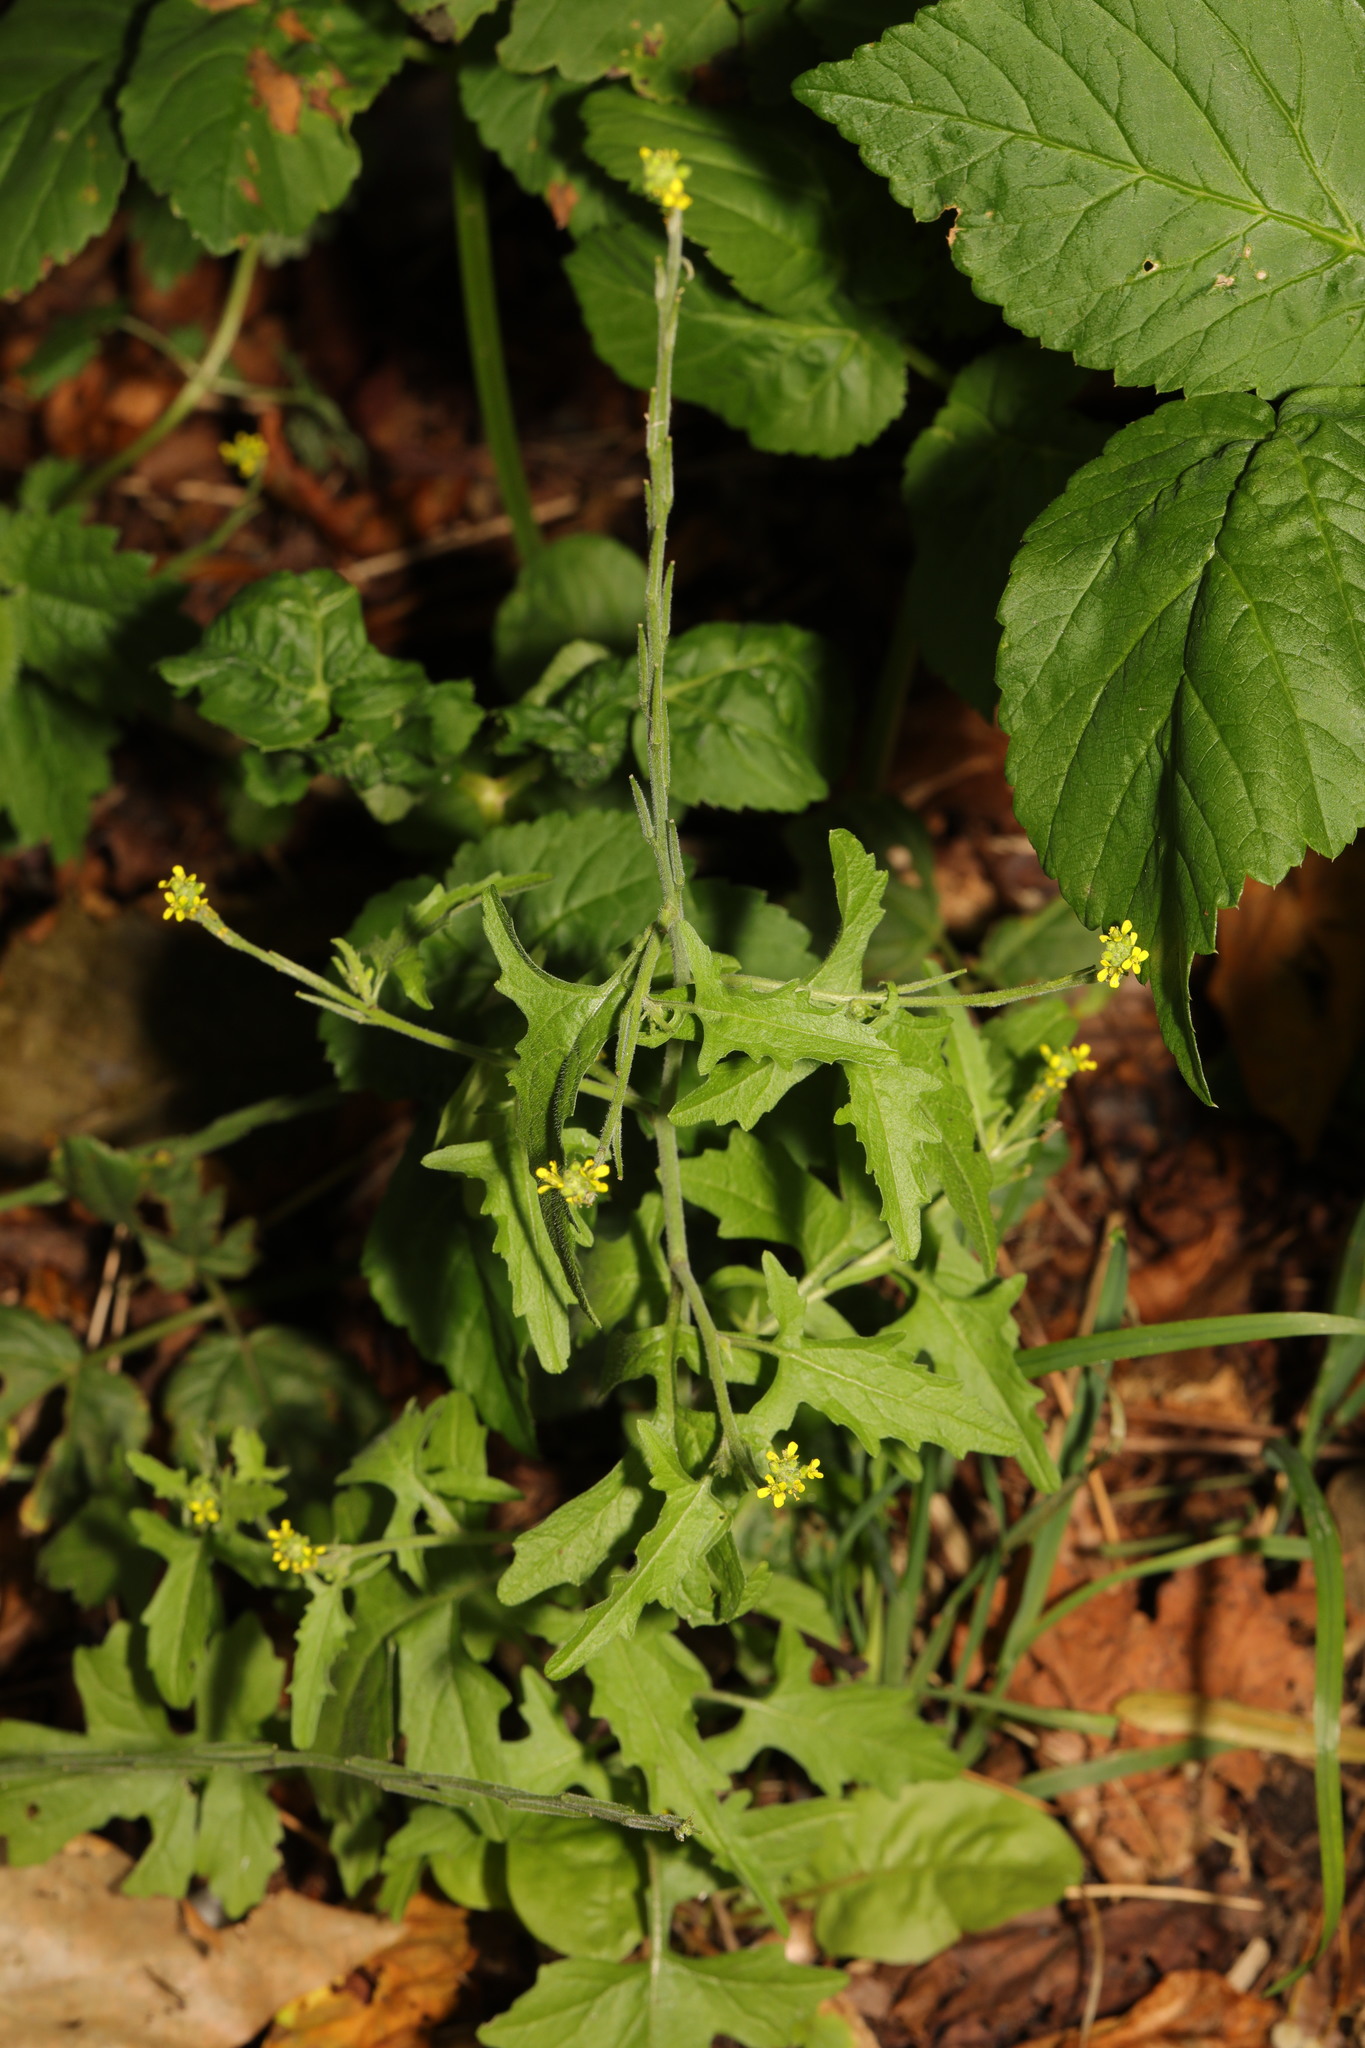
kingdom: Plantae
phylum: Tracheophyta
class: Magnoliopsida
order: Brassicales
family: Brassicaceae
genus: Sisymbrium
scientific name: Sisymbrium officinale
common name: Hedge mustard
